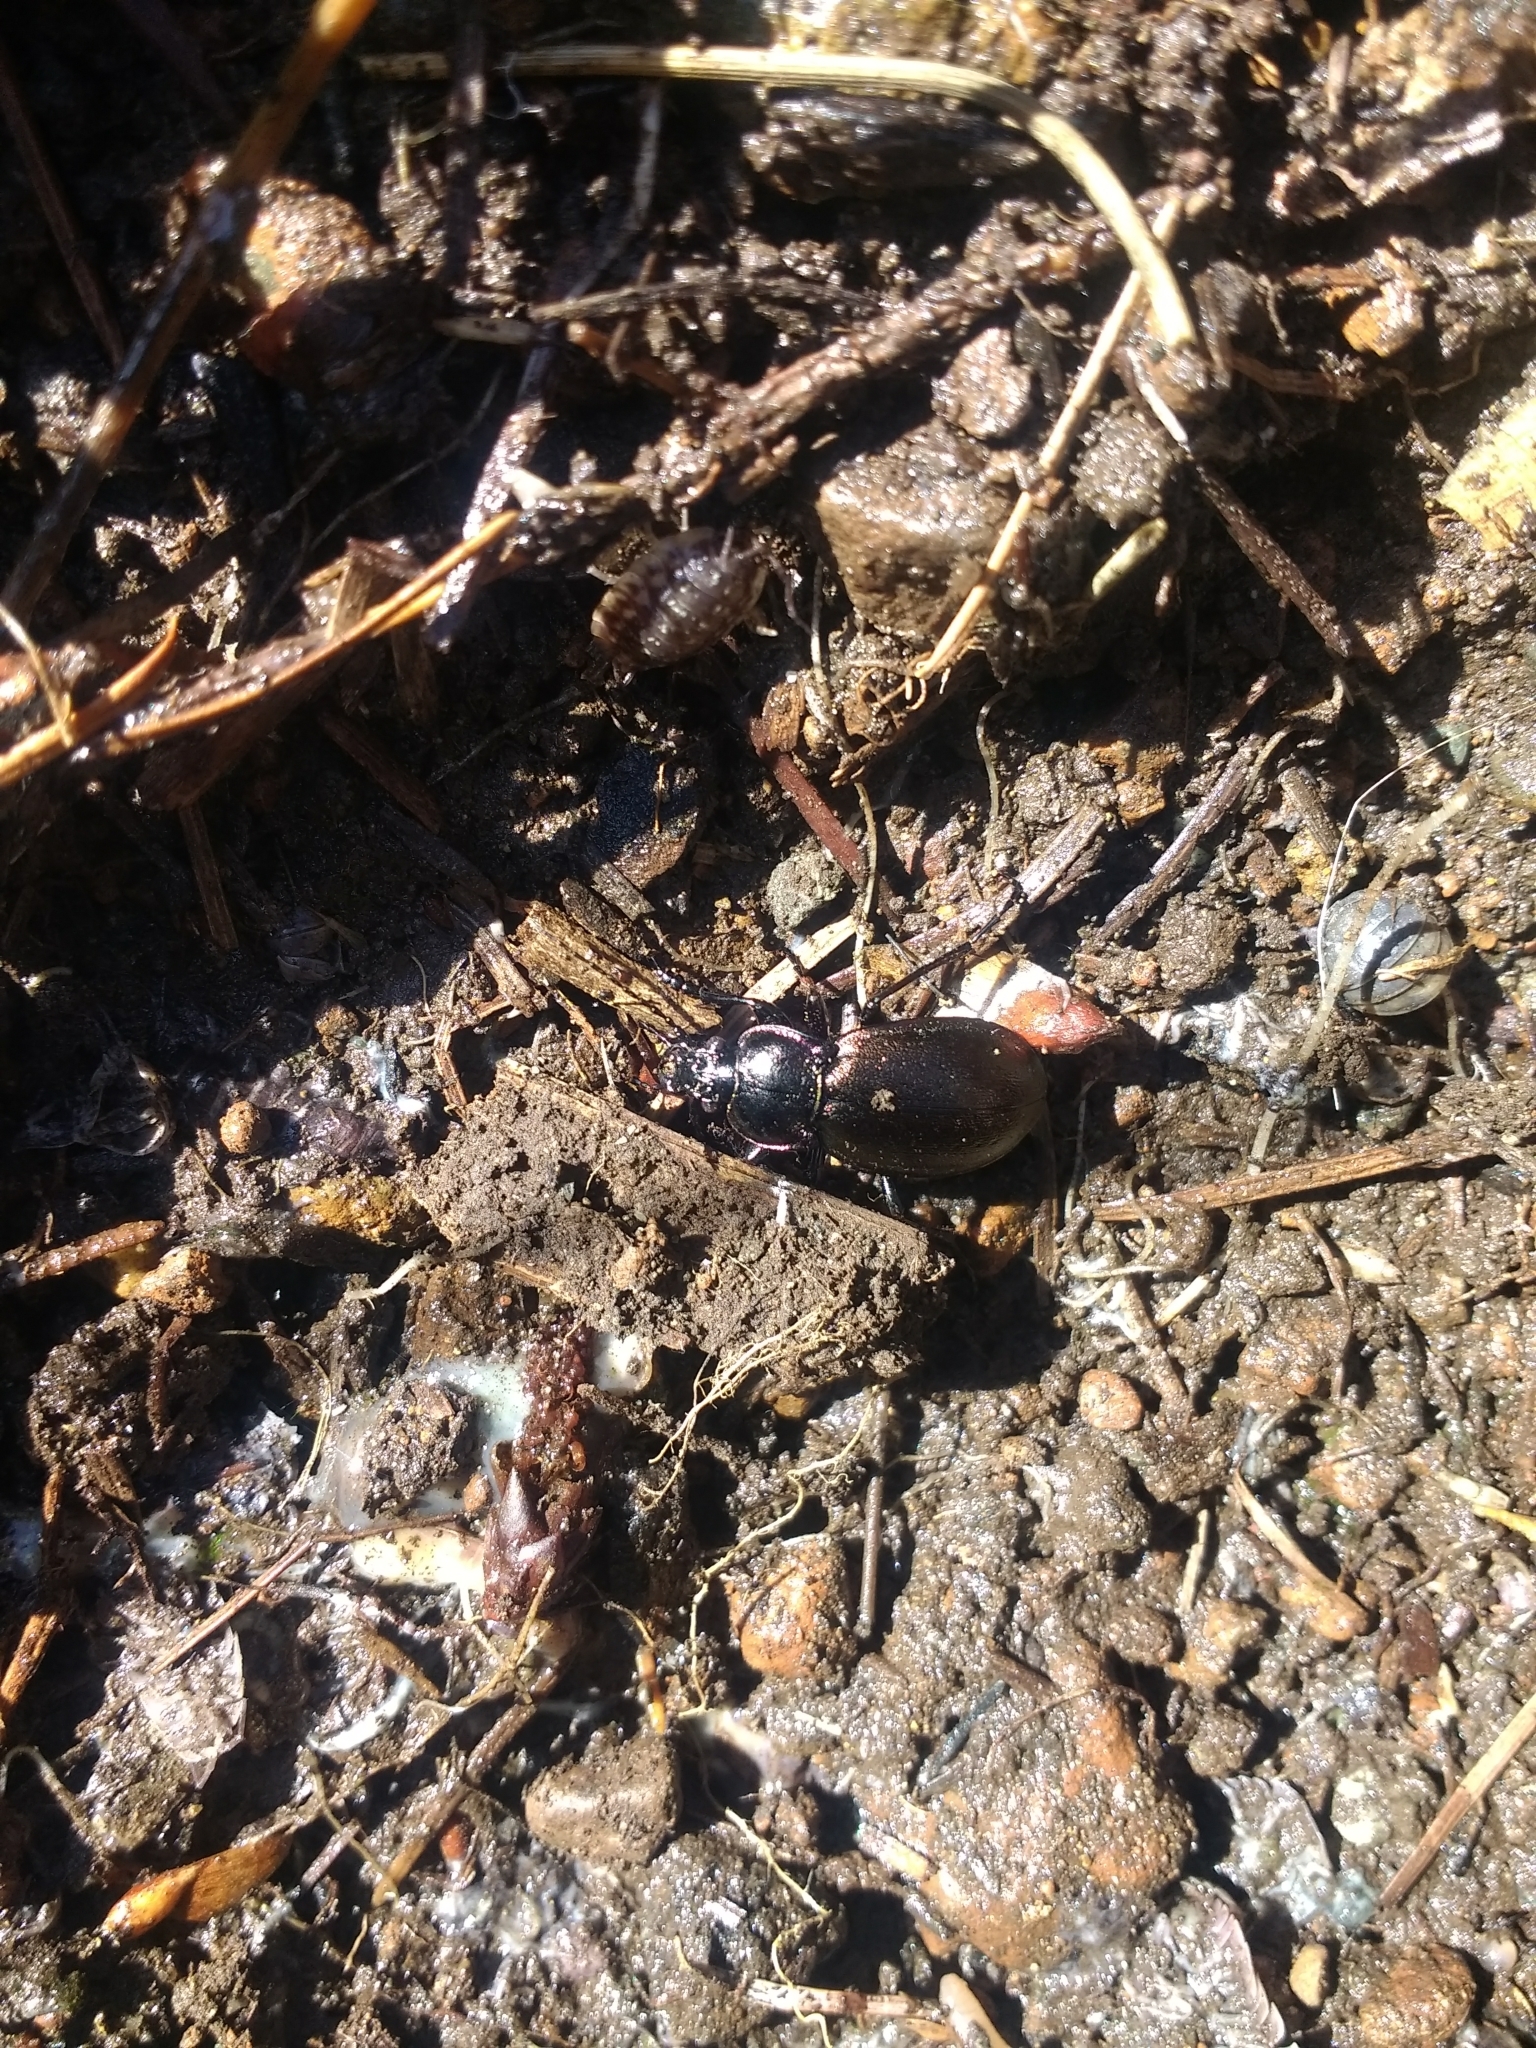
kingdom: Animalia
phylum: Arthropoda
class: Insecta
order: Coleoptera
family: Carabidae
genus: Carabus
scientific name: Carabus nemoralis
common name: European ground beetle
